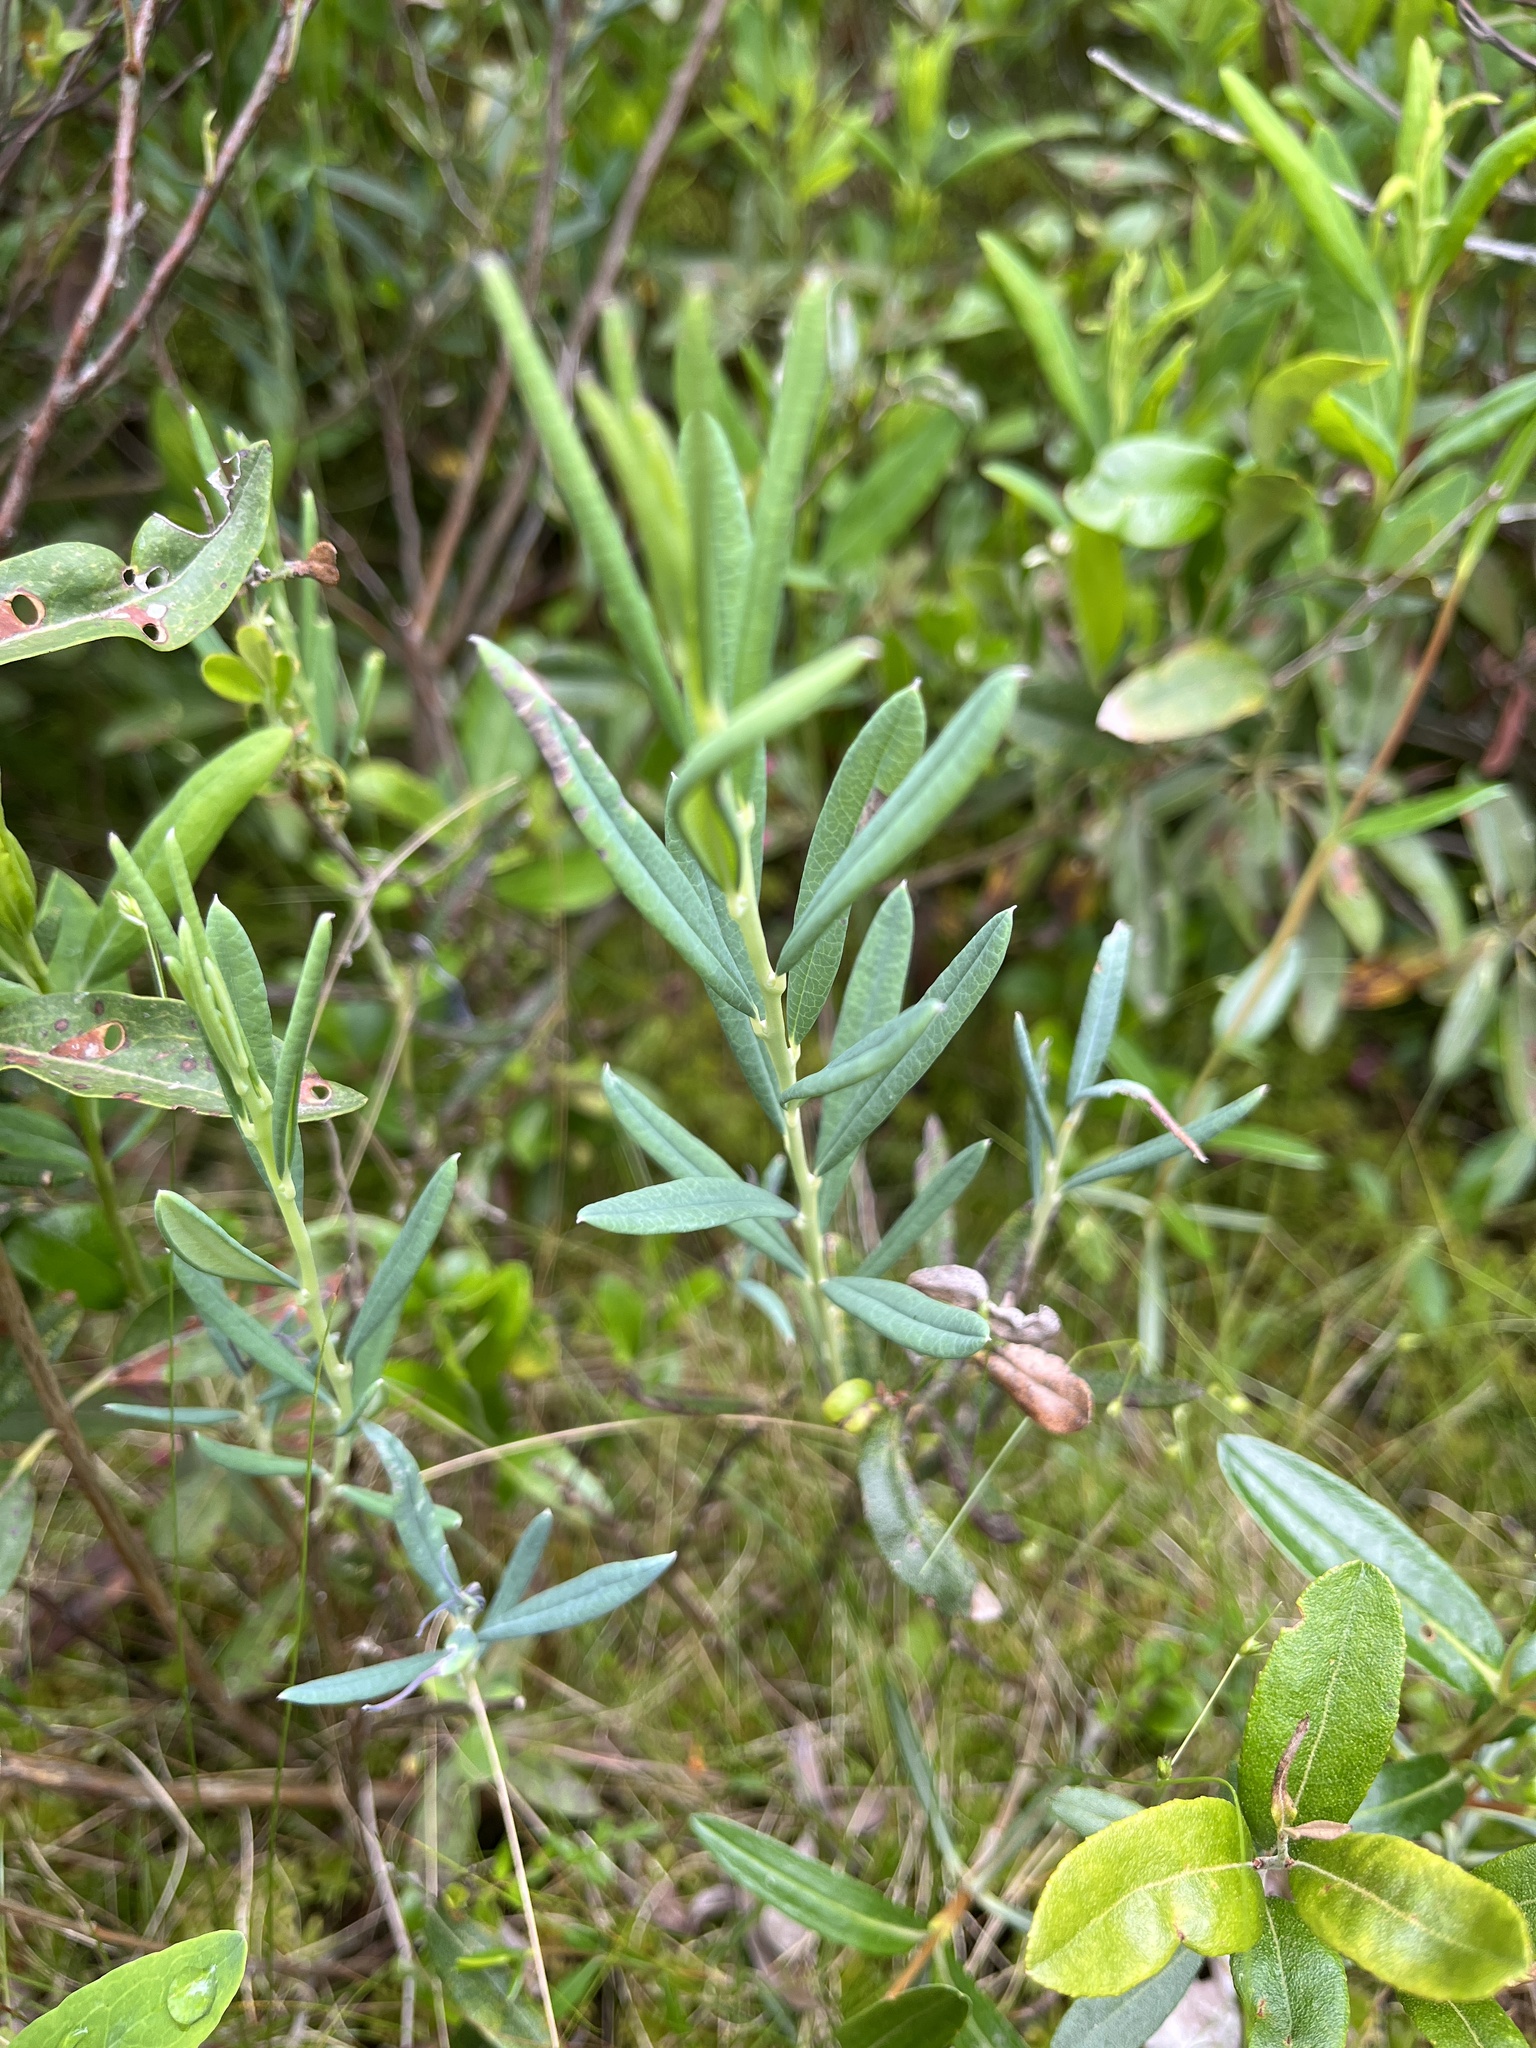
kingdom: Plantae
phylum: Tracheophyta
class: Magnoliopsida
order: Ericales
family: Ericaceae
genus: Andromeda
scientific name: Andromeda polifolia
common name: Bog-rosemary
